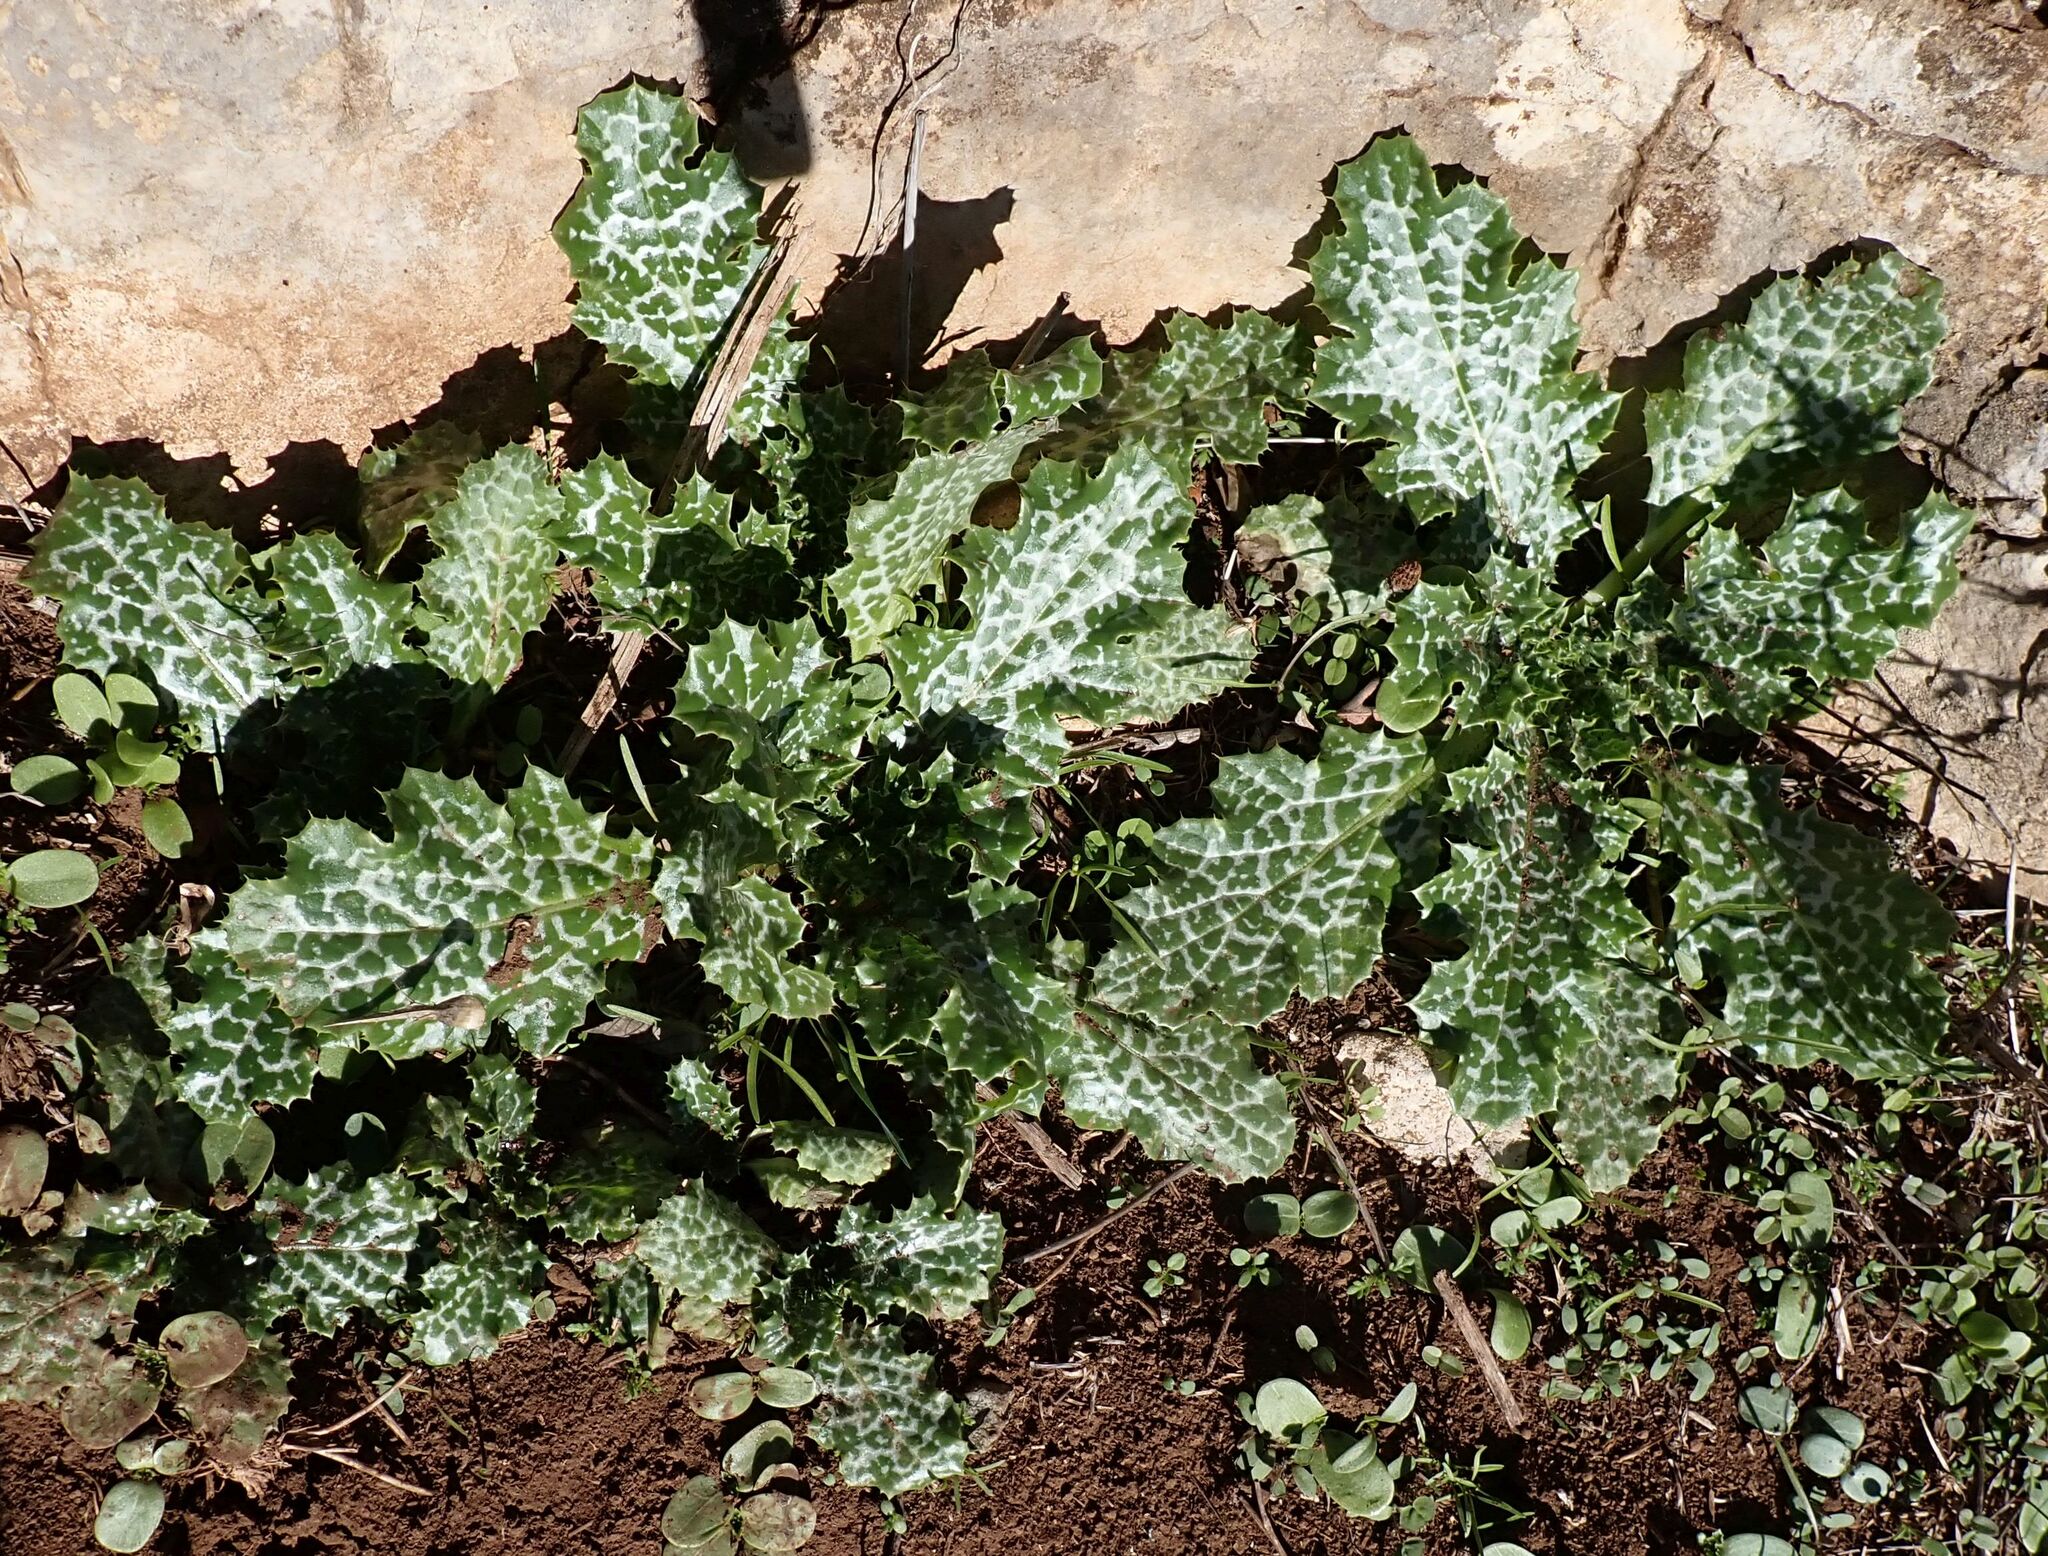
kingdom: Plantae
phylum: Tracheophyta
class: Magnoliopsida
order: Asterales
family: Asteraceae
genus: Silybum
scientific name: Silybum marianum
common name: Milk thistle
